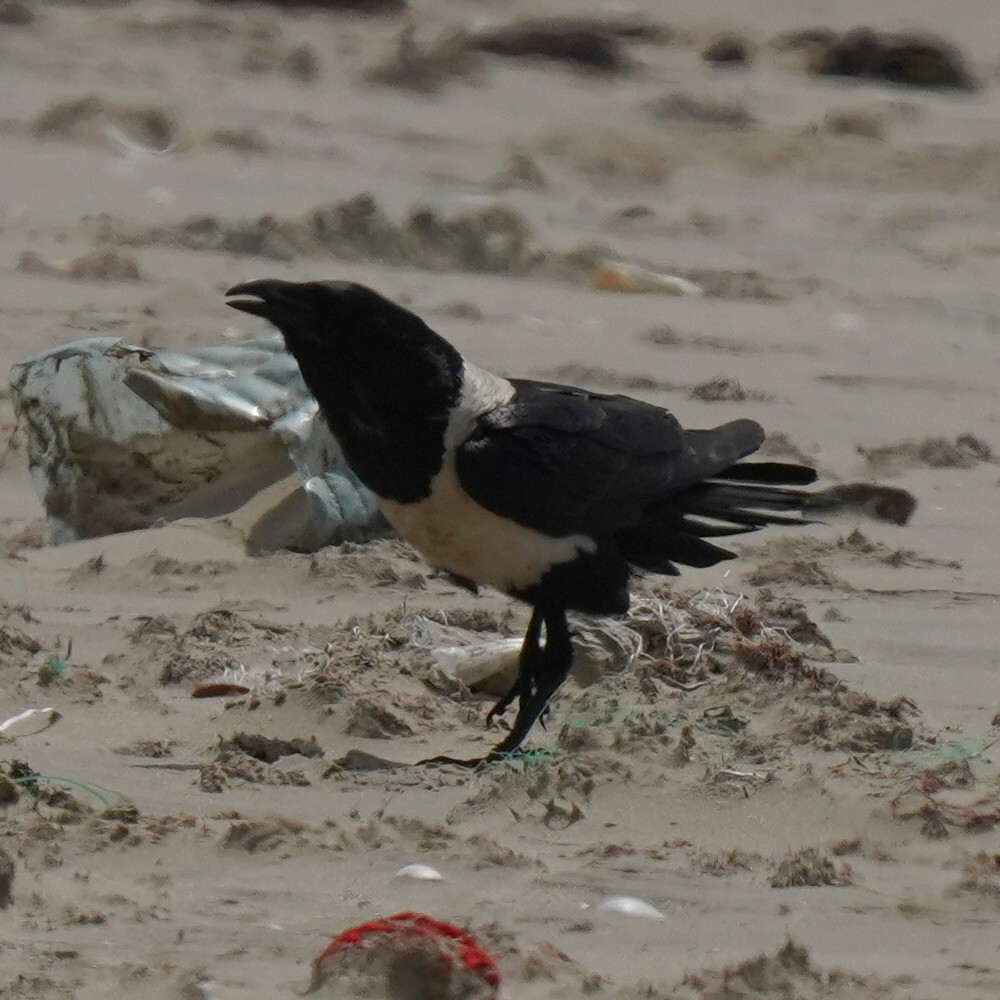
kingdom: Animalia
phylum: Chordata
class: Aves
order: Passeriformes
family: Corvidae
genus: Corvus
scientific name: Corvus albus
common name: Pied crow
